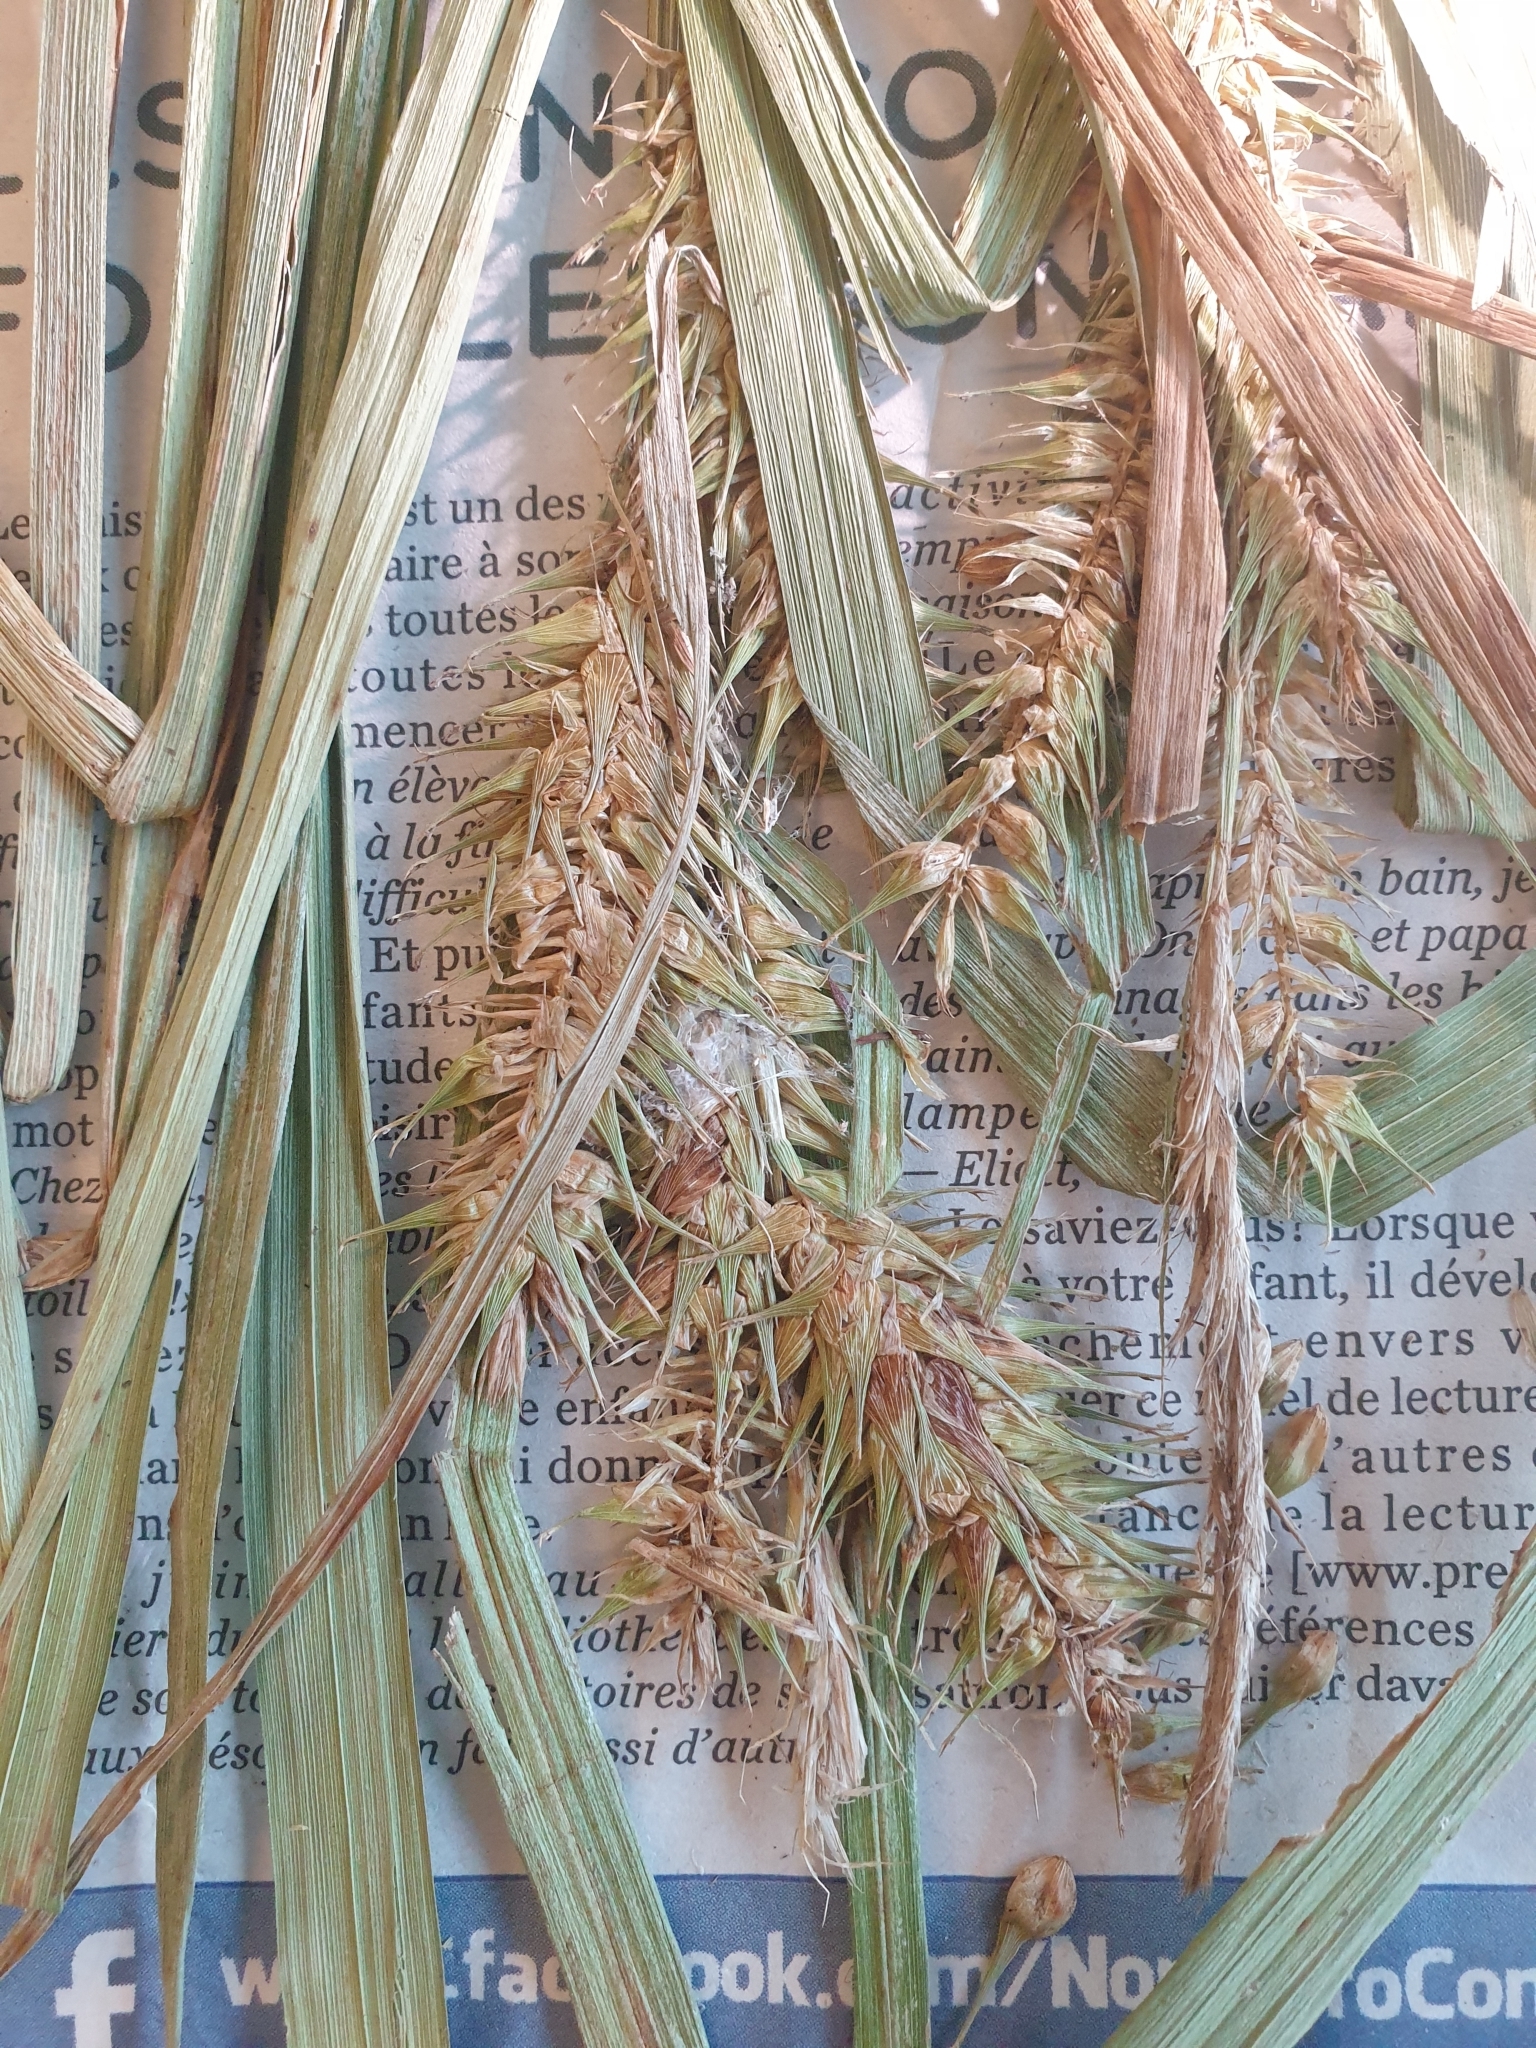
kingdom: Plantae
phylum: Tracheophyta
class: Liliopsida
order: Poales
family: Cyperaceae
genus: Carex
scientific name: Carex lupulina
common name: Hop sedge
